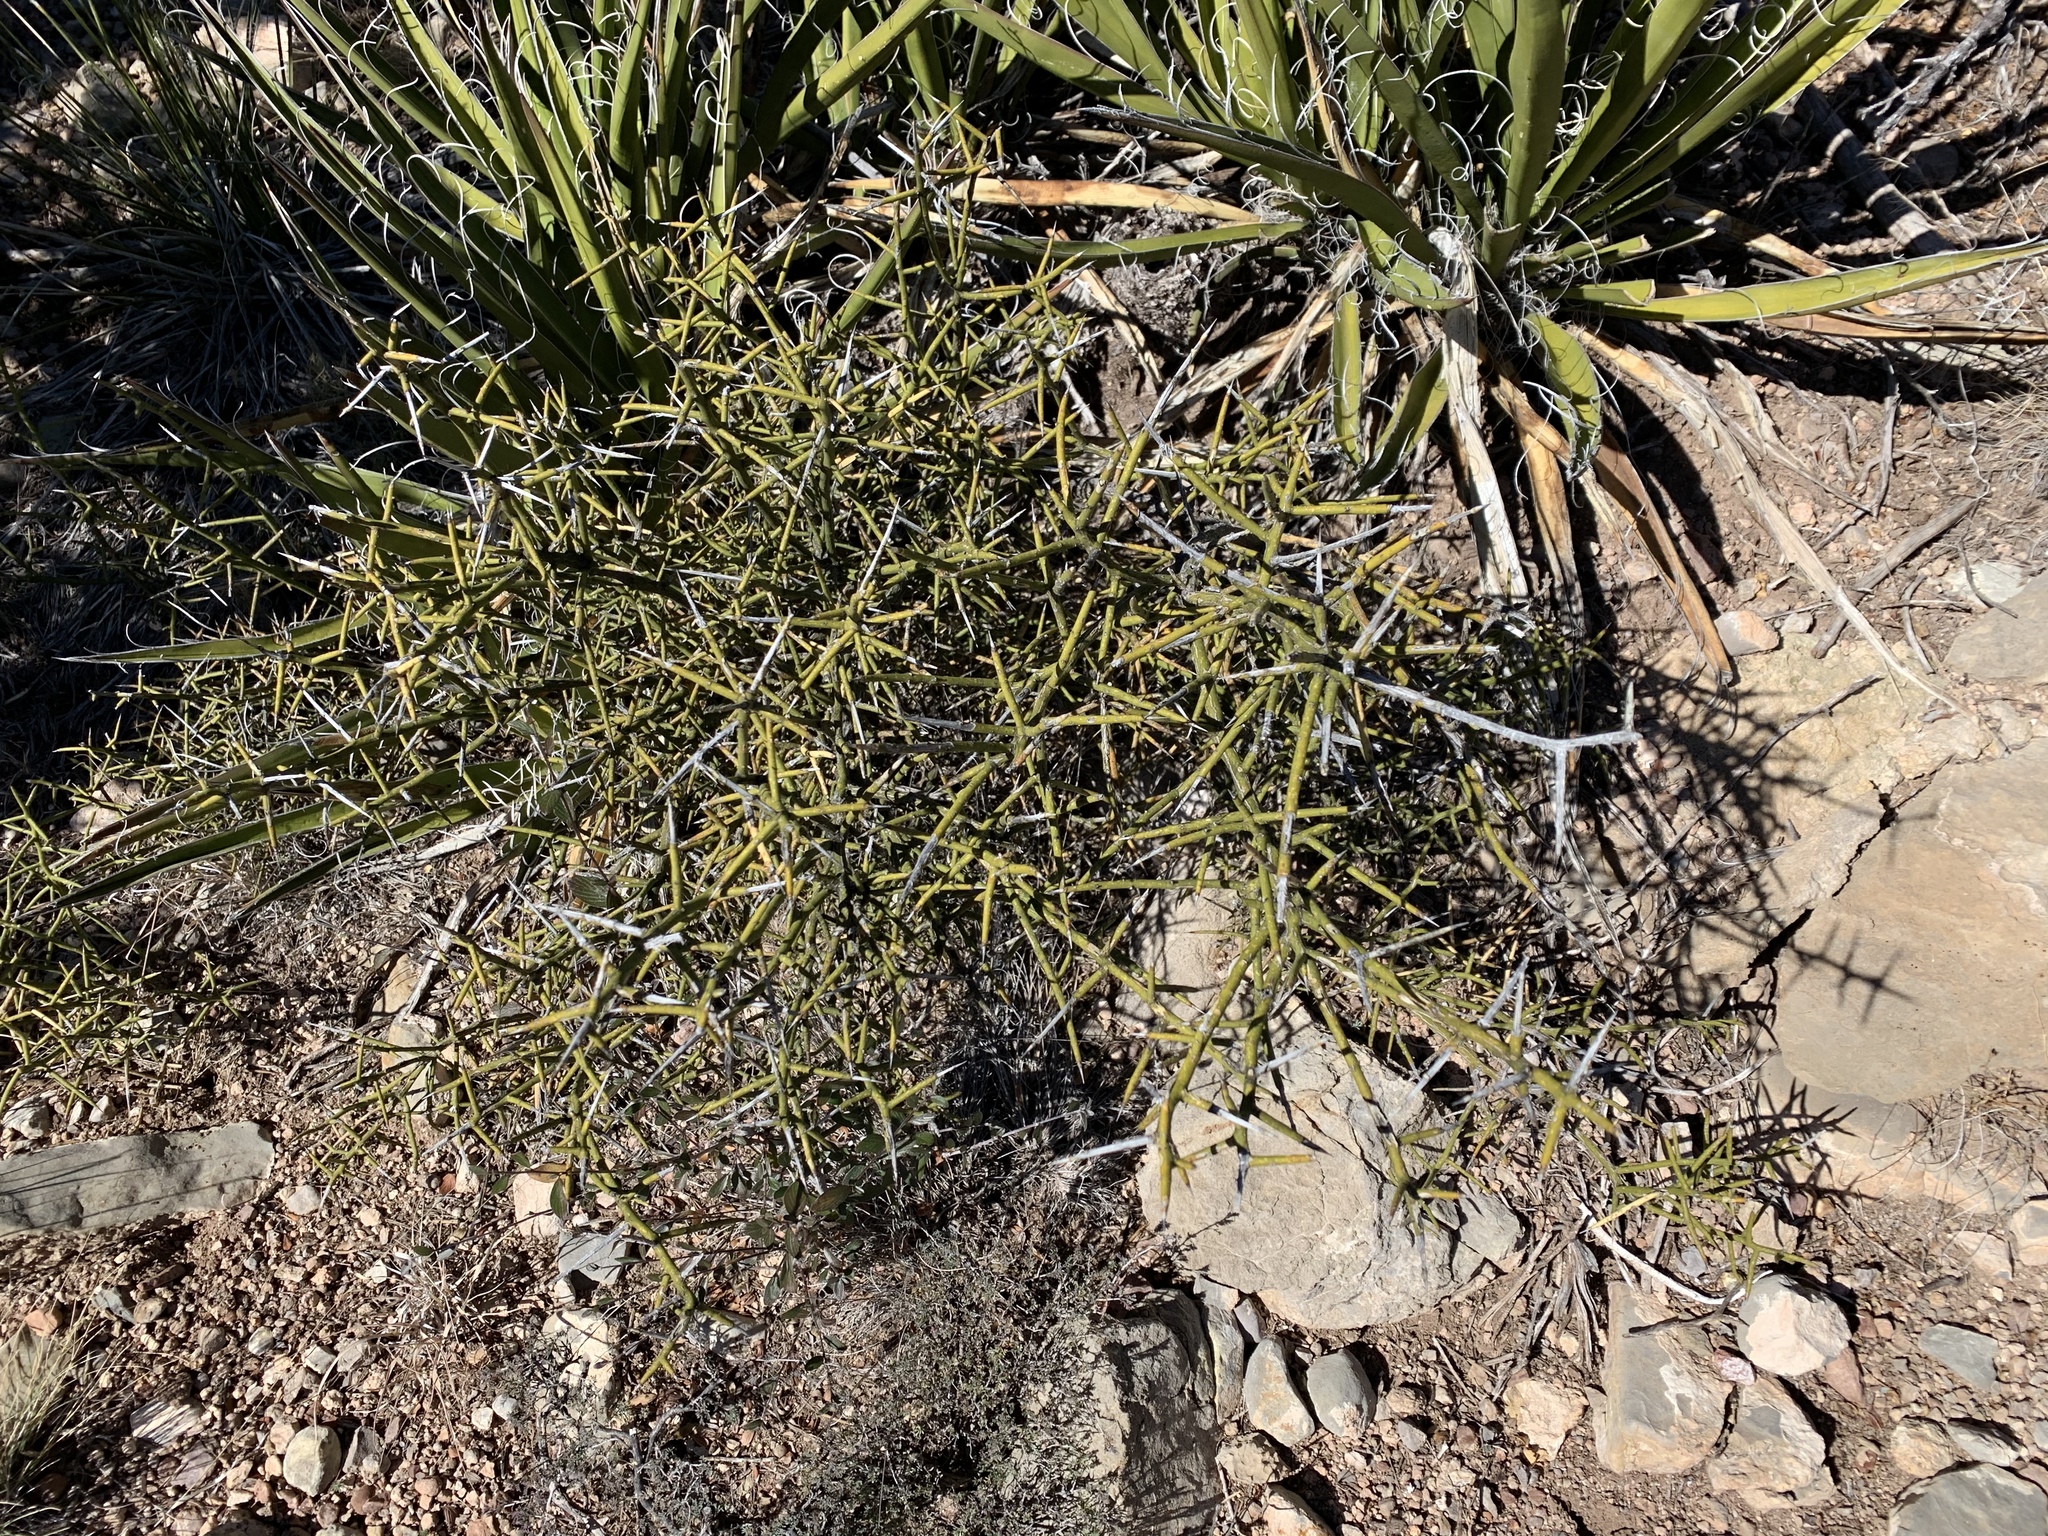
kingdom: Plantae
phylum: Tracheophyta
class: Magnoliopsida
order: Brassicales
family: Koeberliniaceae
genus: Koeberlinia
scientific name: Koeberlinia spinosa
